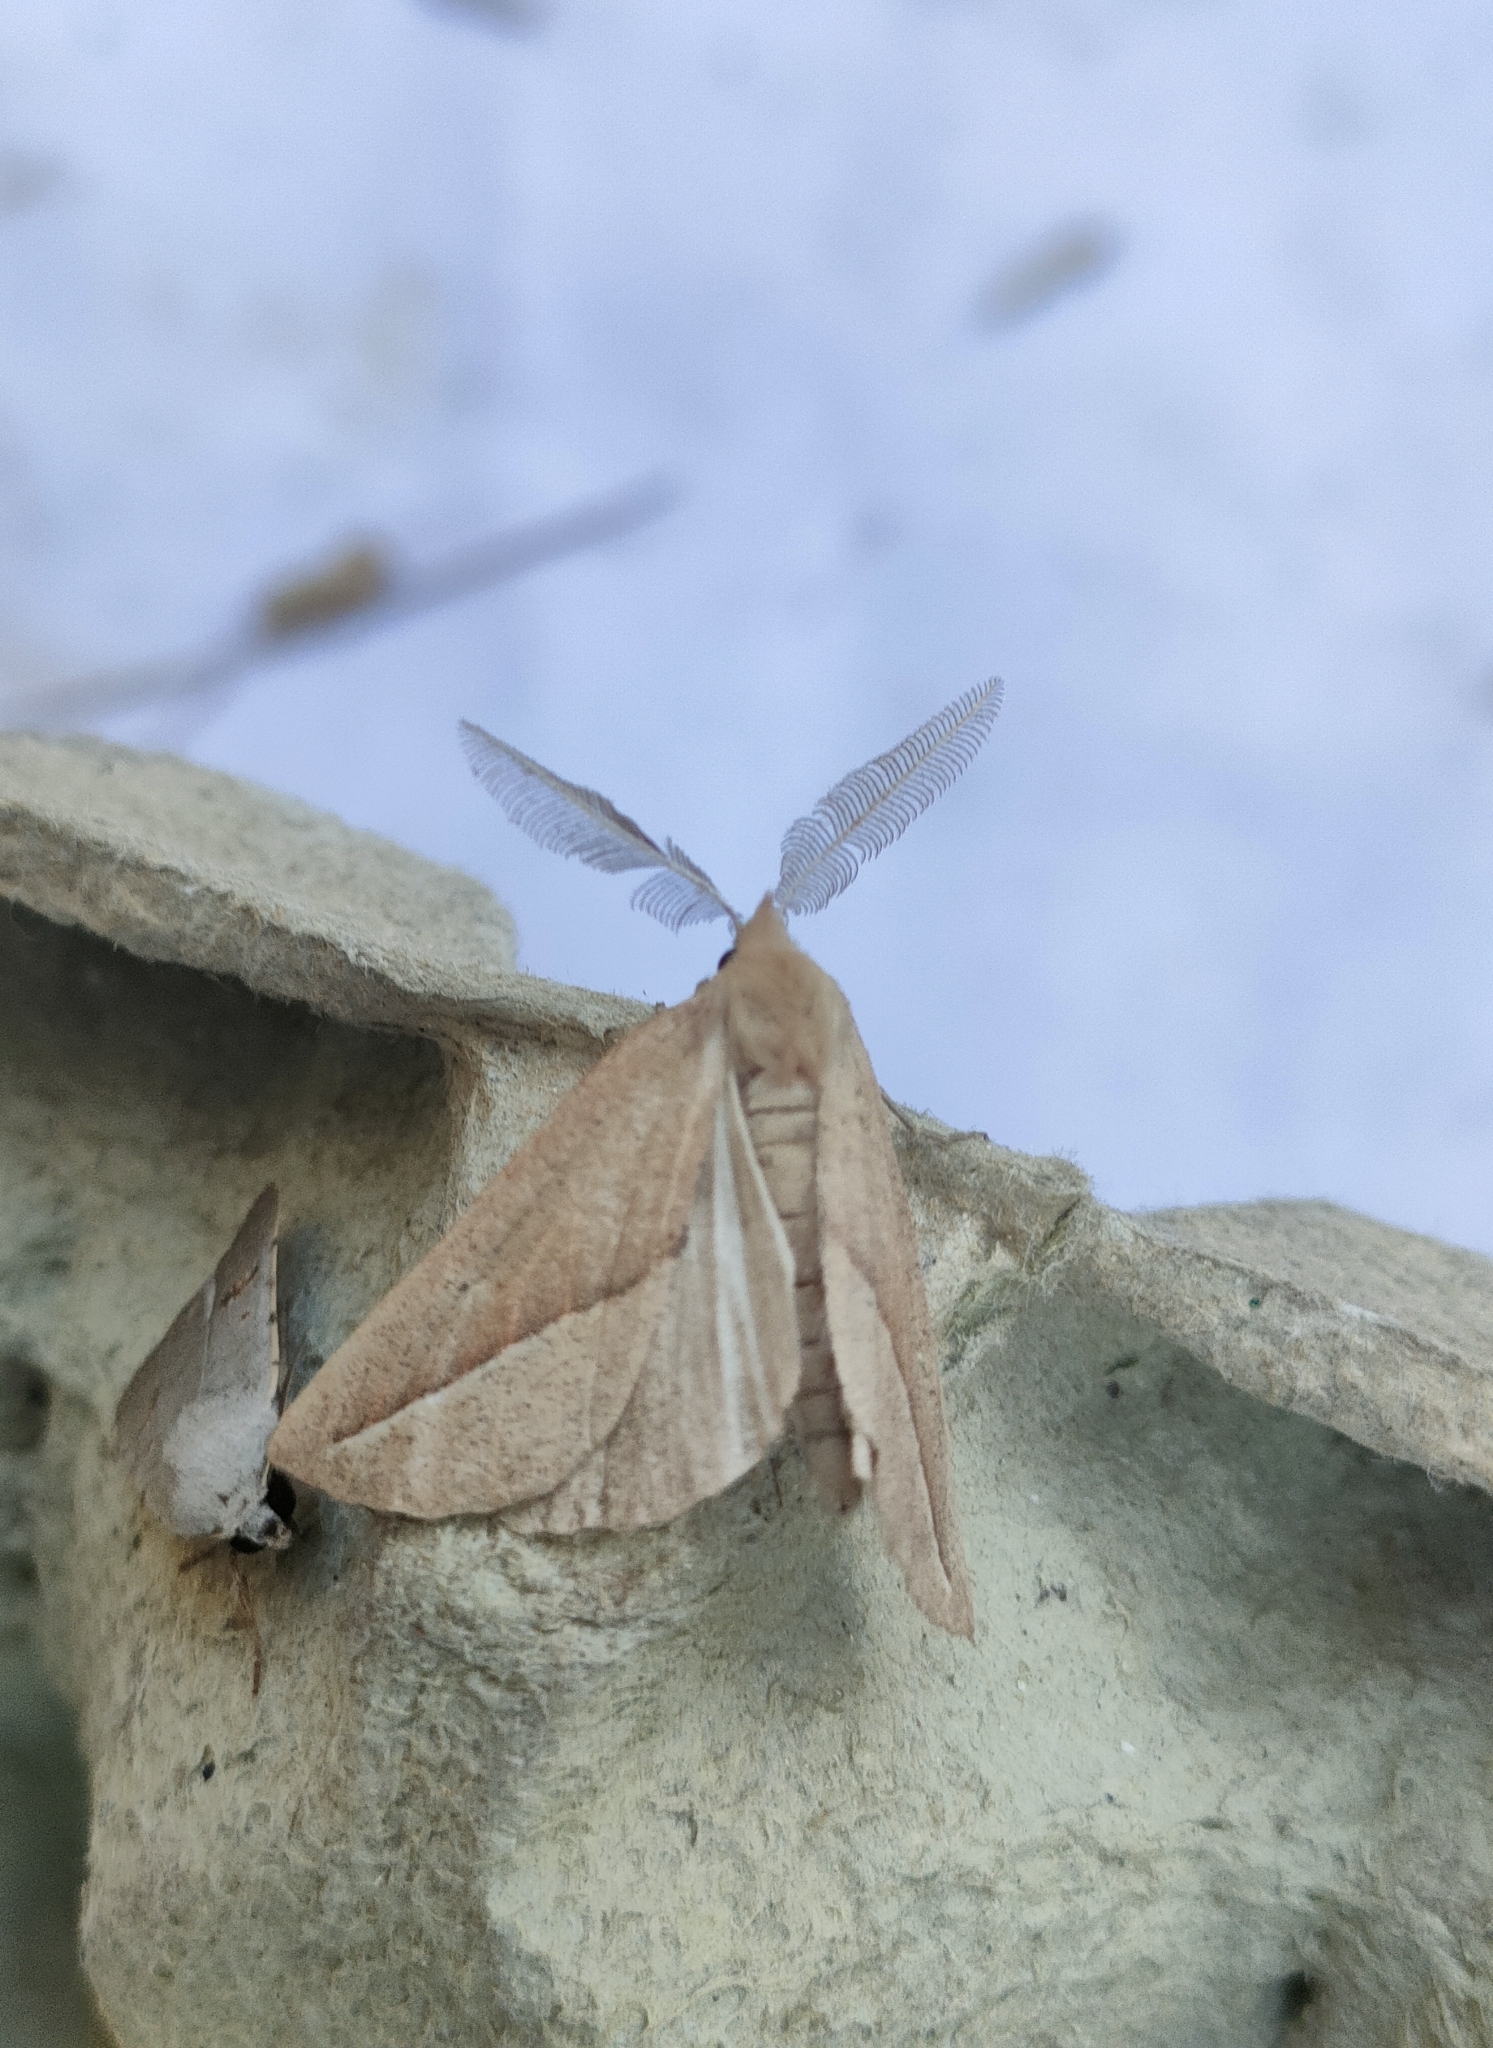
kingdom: Animalia
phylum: Arthropoda
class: Insecta
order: Lepidoptera
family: Geometridae
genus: Compsoptera
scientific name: Compsoptera opacaria
